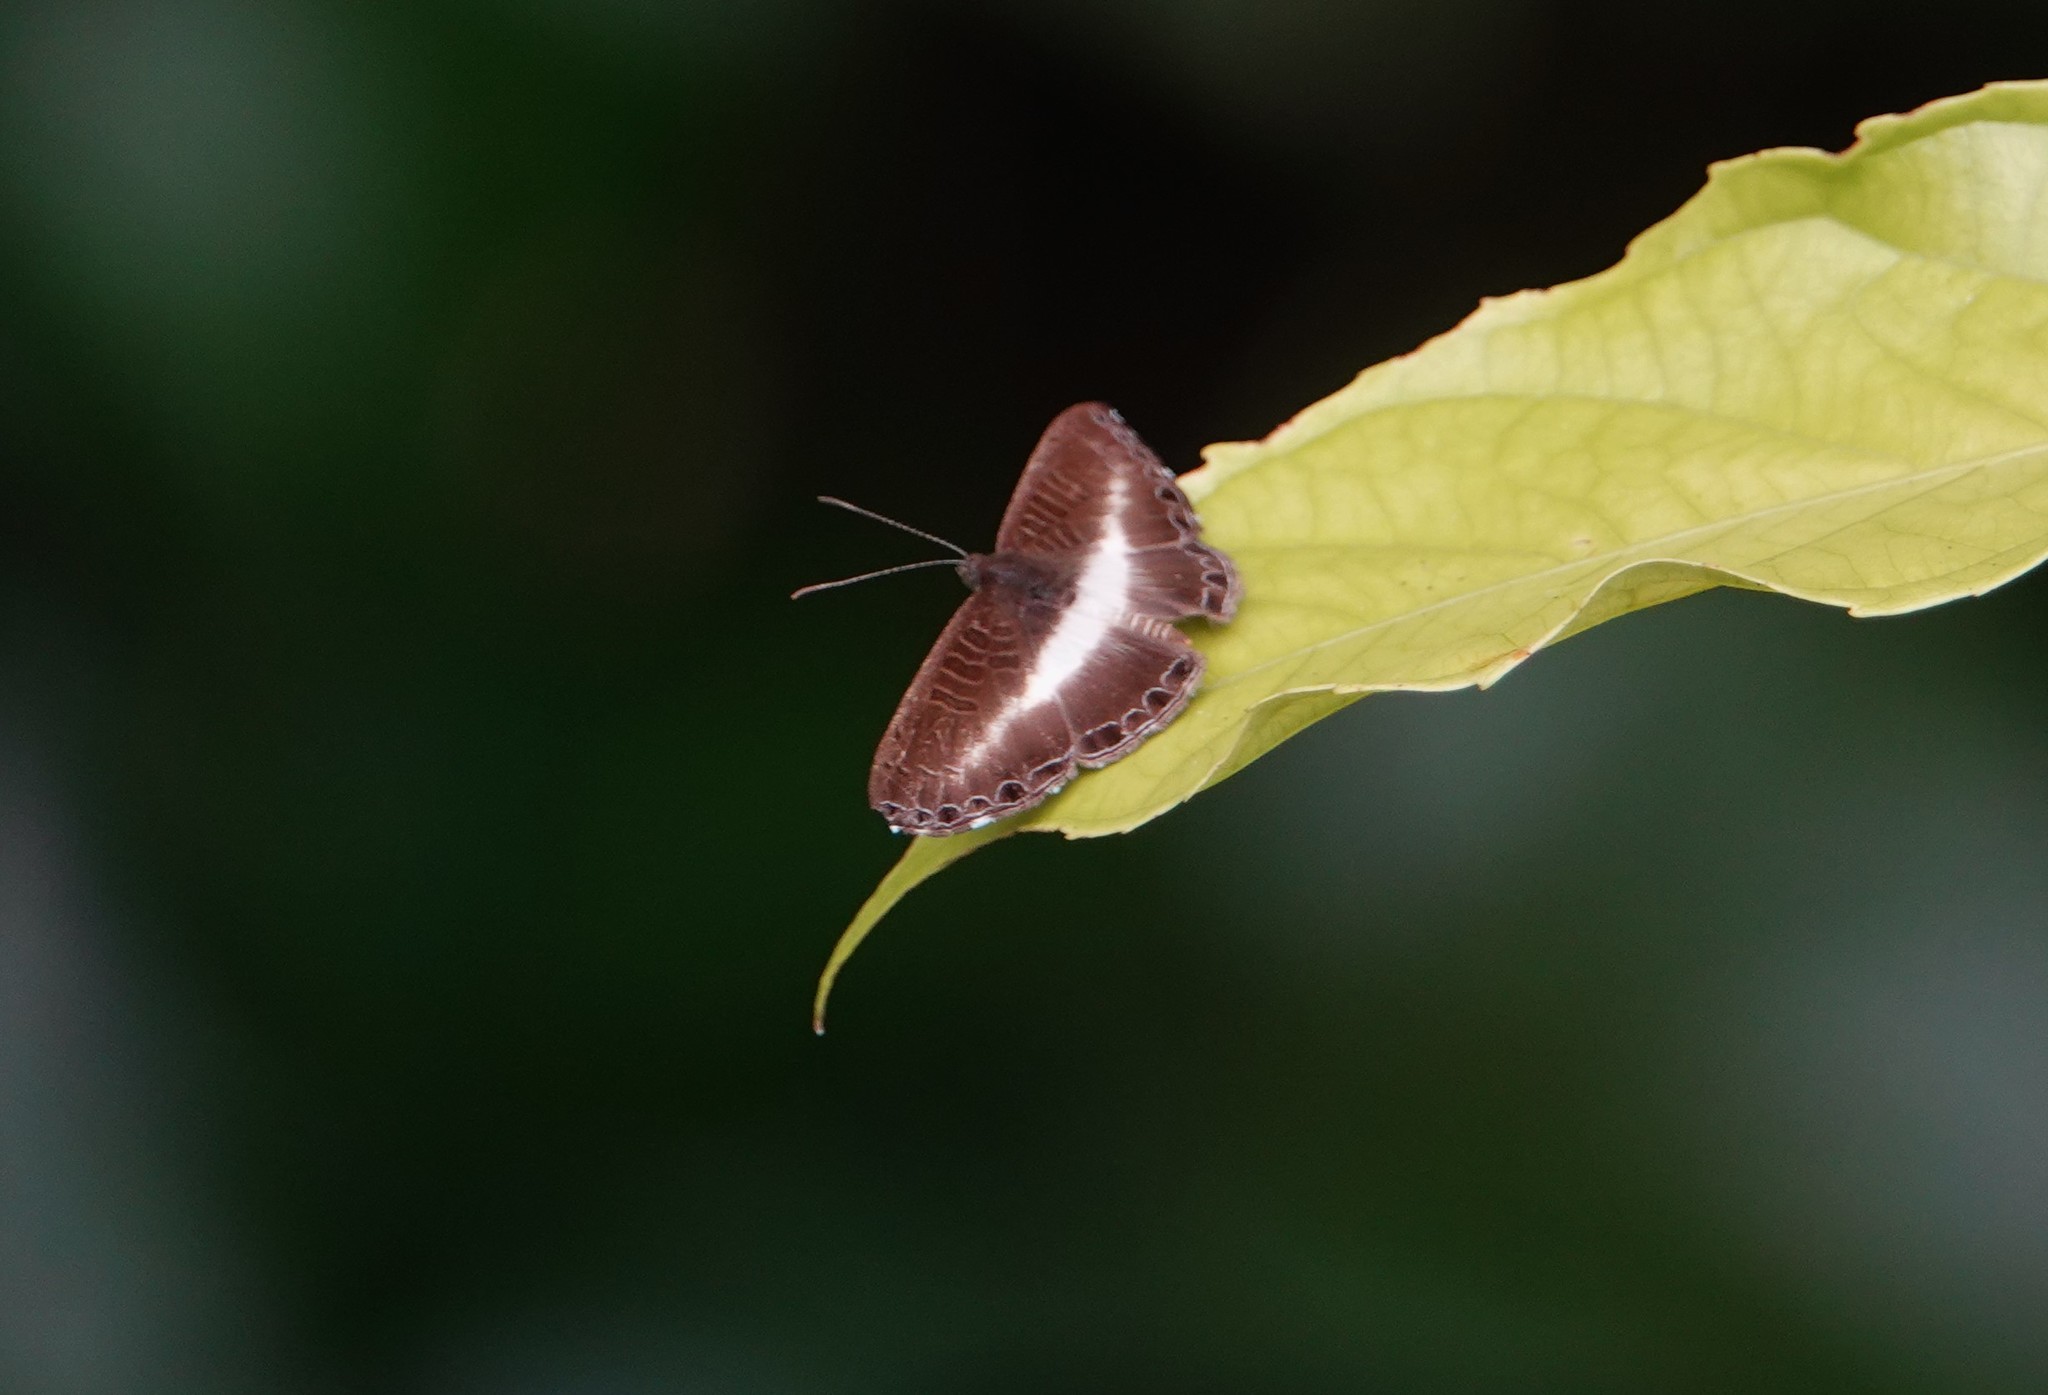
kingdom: Animalia
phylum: Arthropoda
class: Insecta
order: Lepidoptera
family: Riodinidae
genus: Nymula
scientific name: Nymula velabrum
